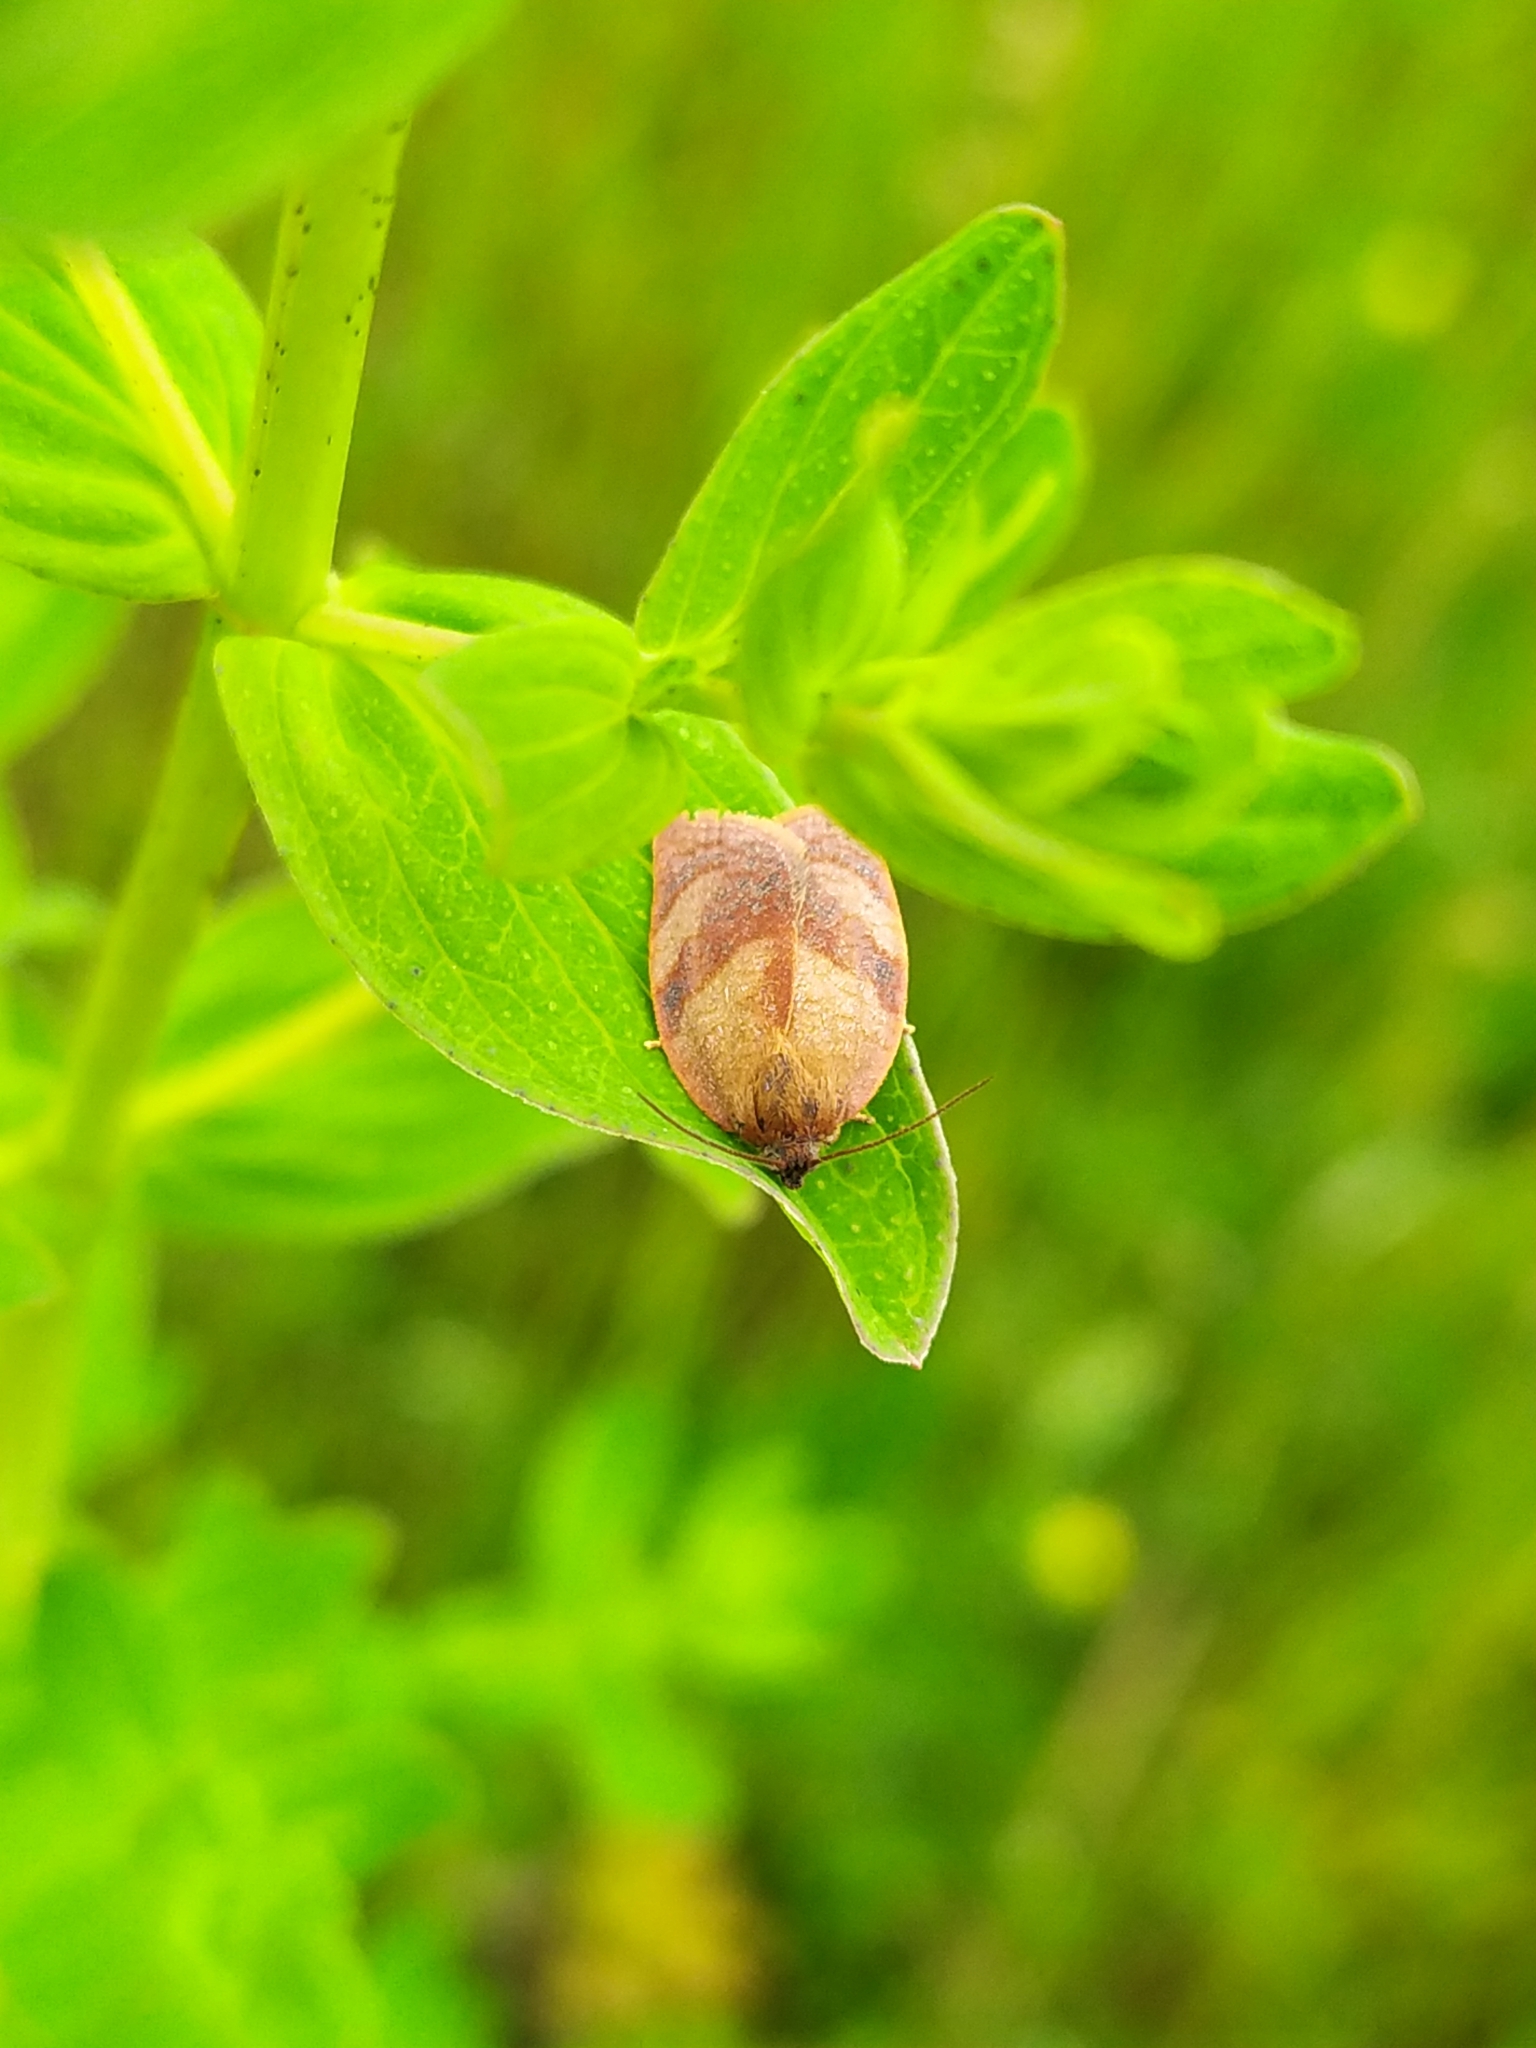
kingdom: Animalia
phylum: Arthropoda
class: Insecta
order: Lepidoptera
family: Tortricidae
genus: Cacoecimorpha
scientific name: Cacoecimorpha pronubana
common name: Carnation tortrix
